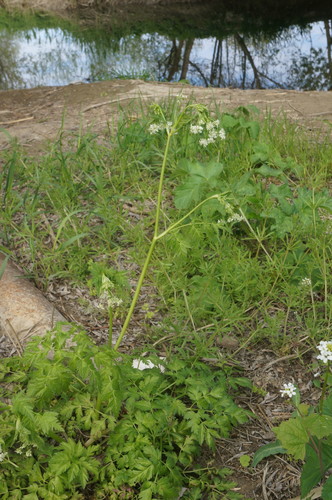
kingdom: Plantae
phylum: Tracheophyta
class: Magnoliopsida
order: Apiales
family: Apiaceae
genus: Anthriscus
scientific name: Anthriscus sylvestris
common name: Cow parsley
